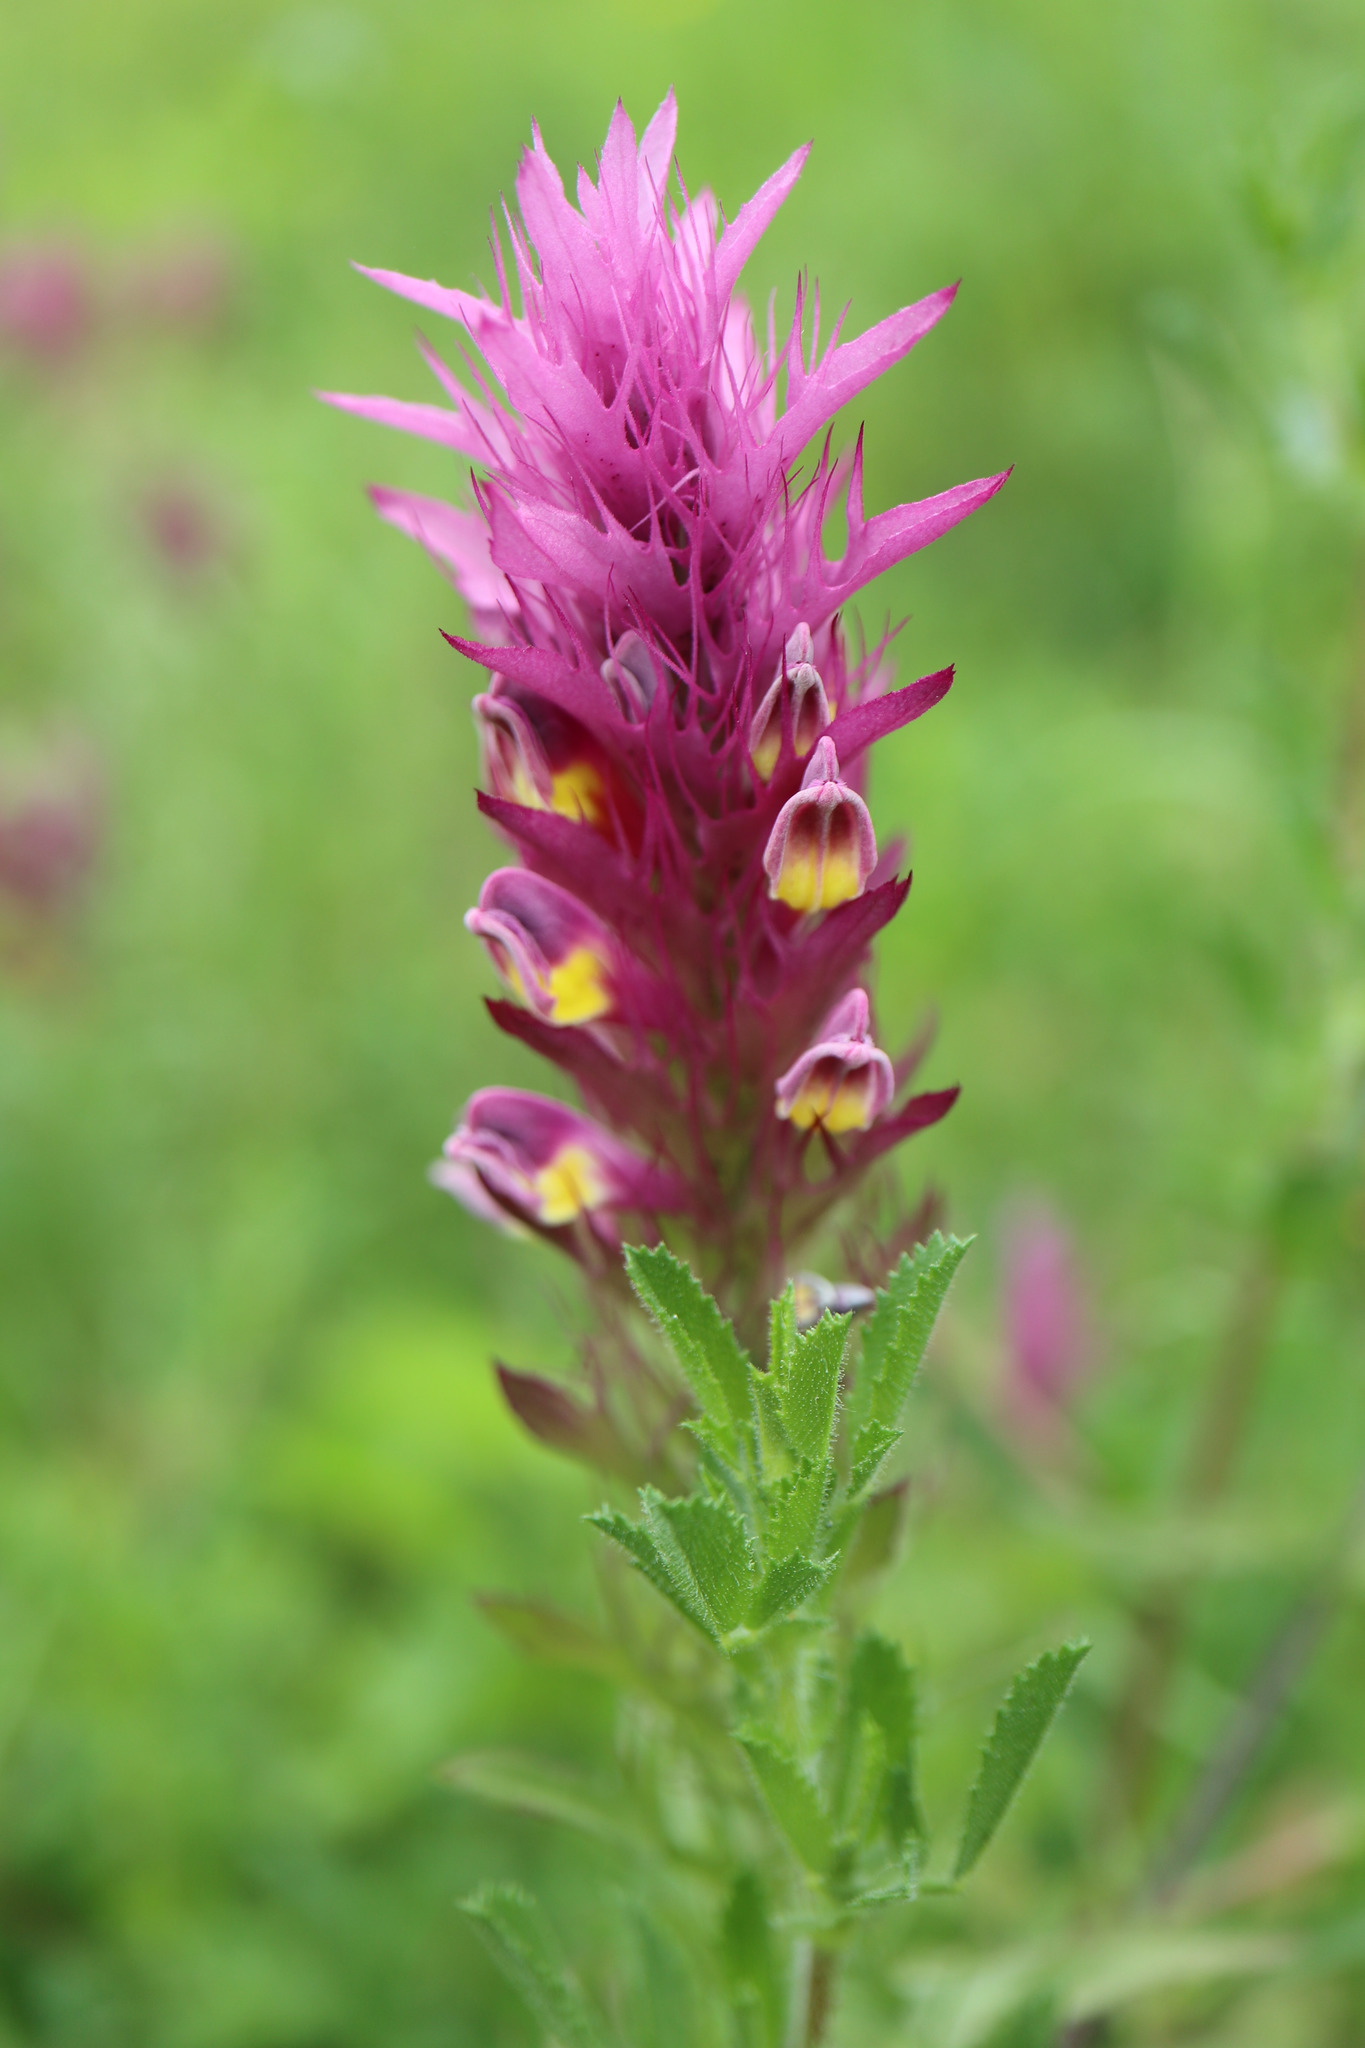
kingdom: Plantae
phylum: Tracheophyta
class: Magnoliopsida
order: Lamiales
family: Orobanchaceae
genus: Melampyrum
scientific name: Melampyrum arvense
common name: Field cow-wheat
